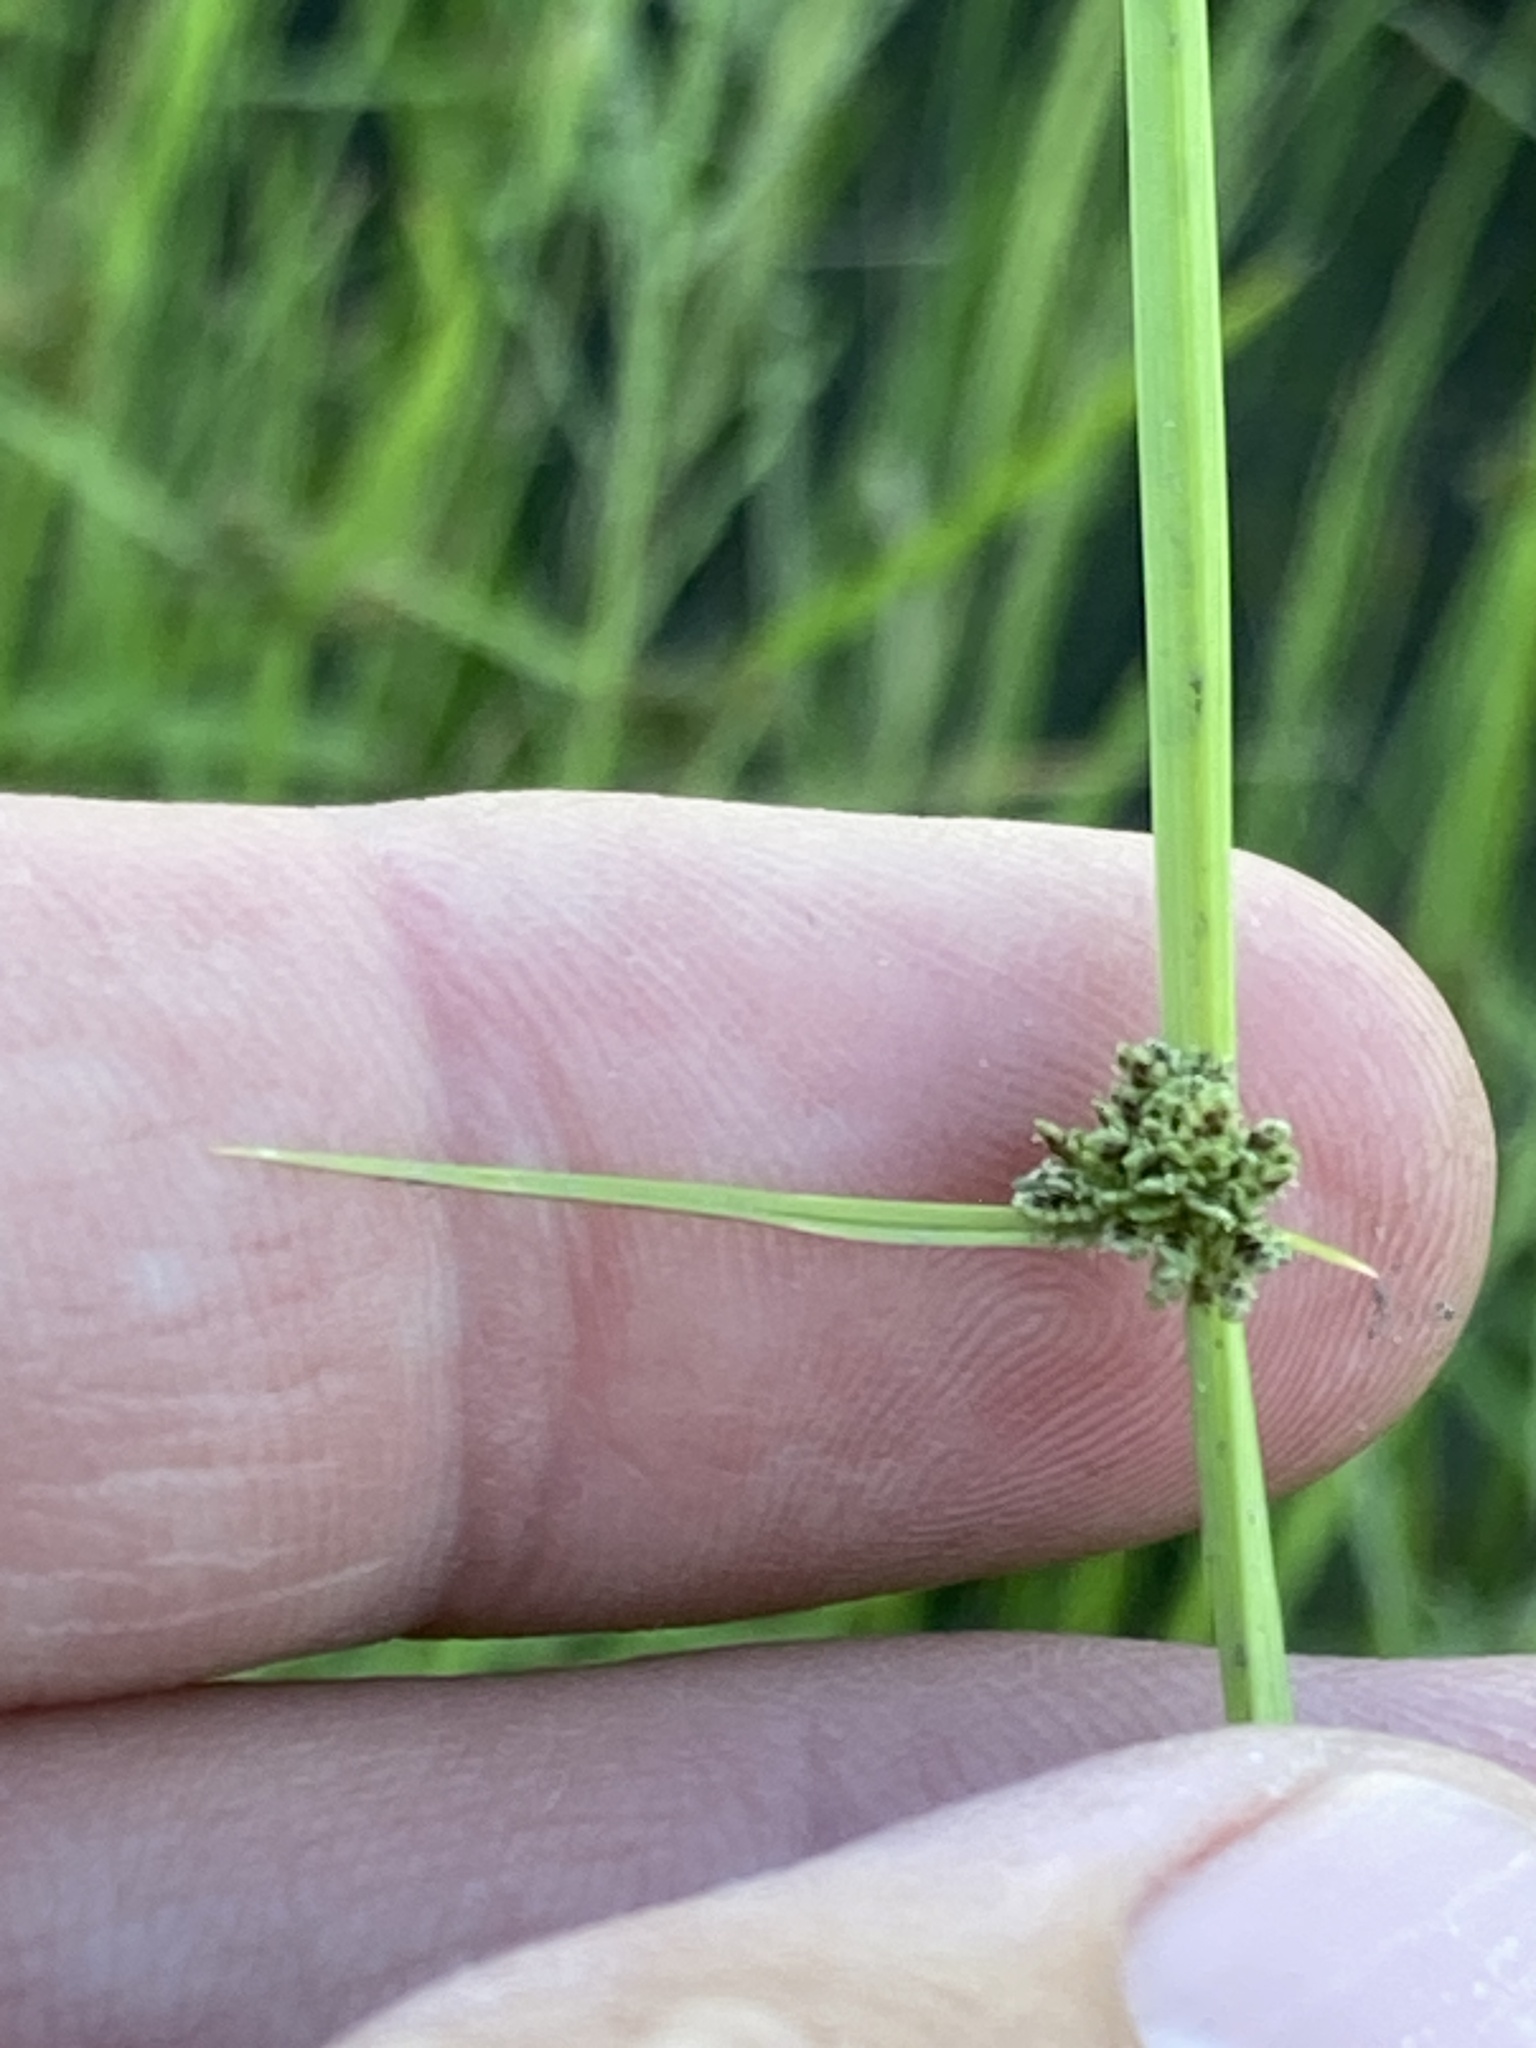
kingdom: Plantae
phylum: Tracheophyta
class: Liliopsida
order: Poales
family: Cyperaceae
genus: Cyperus
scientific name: Cyperus difformis
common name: Variable flatsedge
